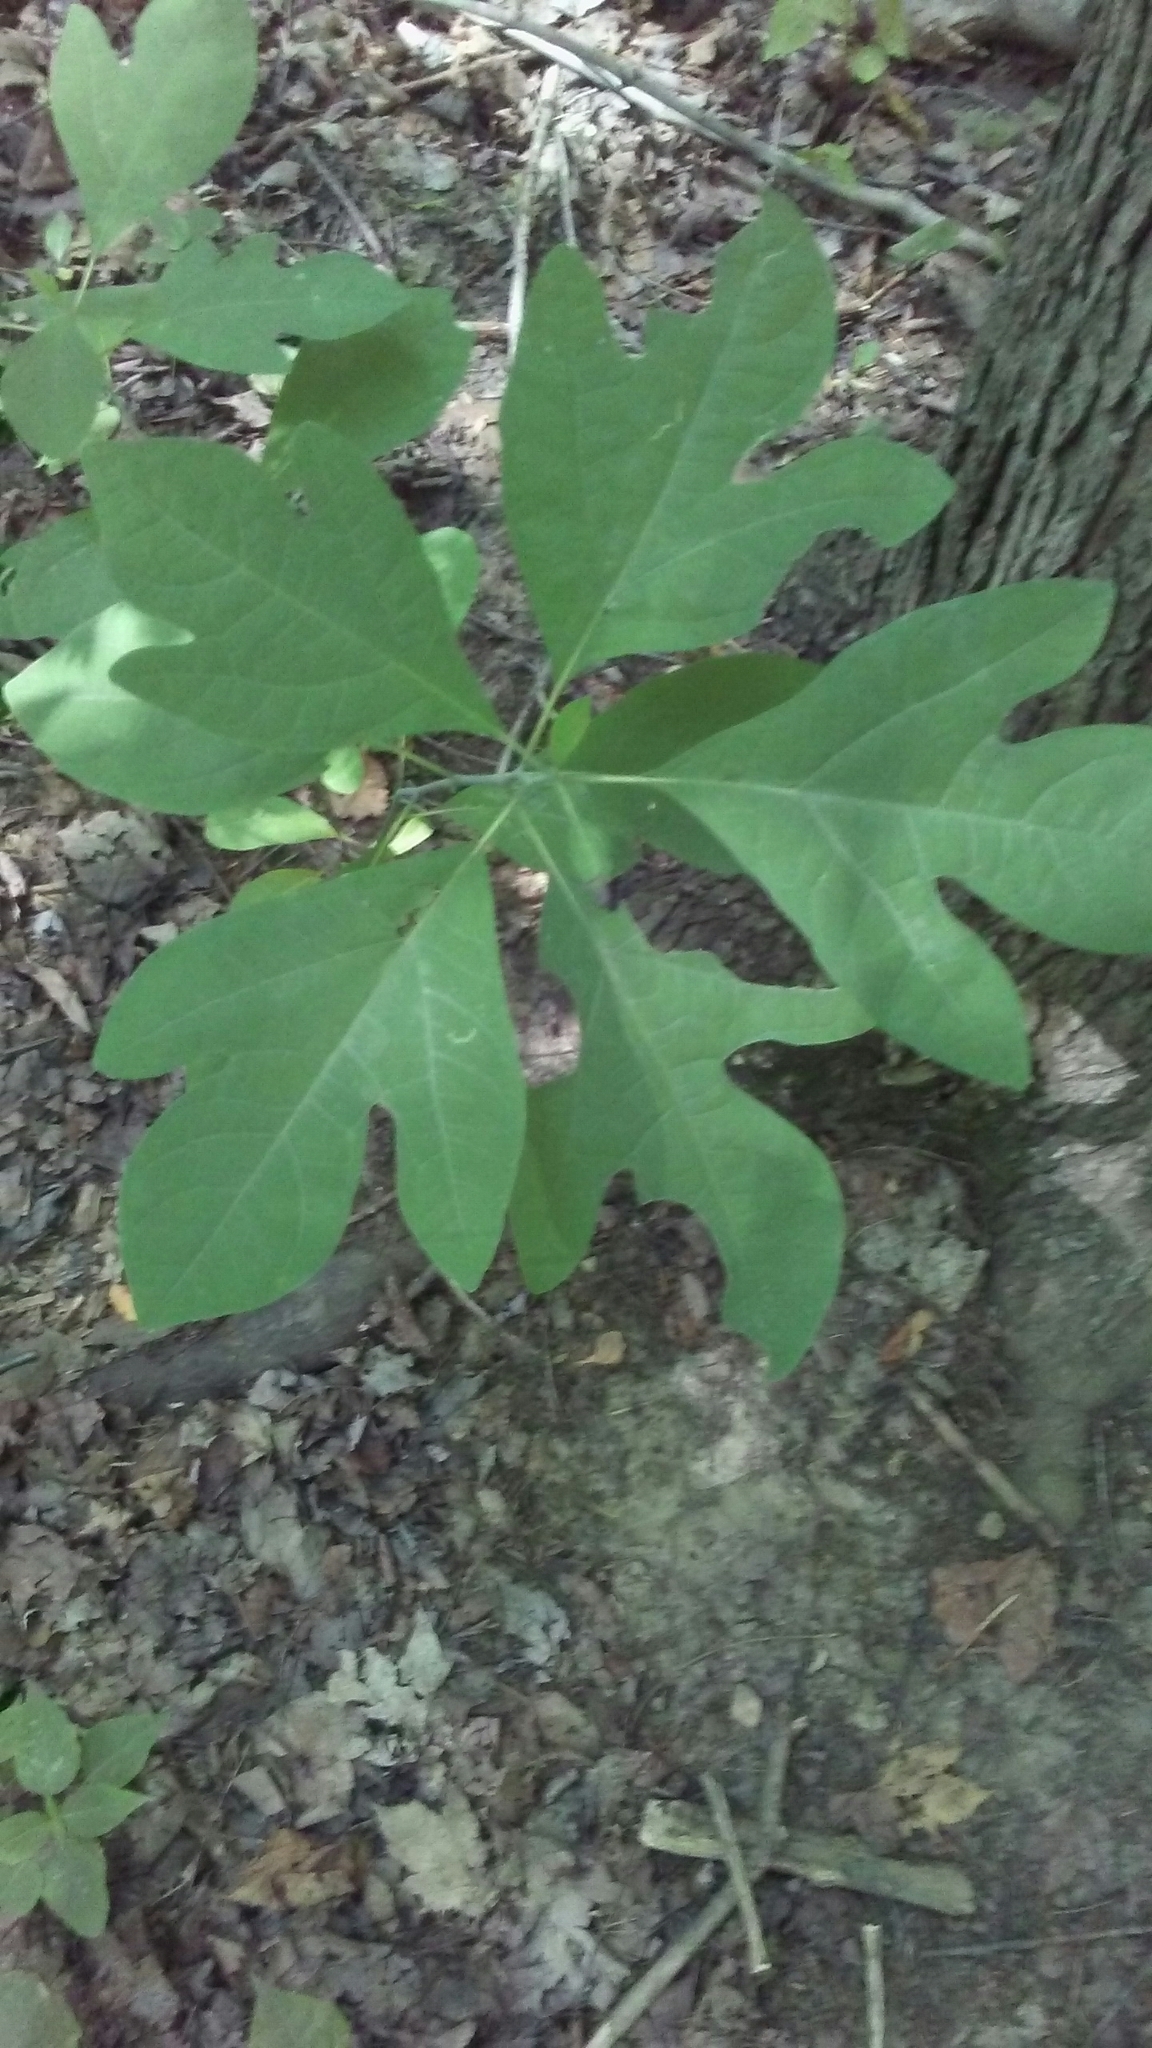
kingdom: Plantae
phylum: Tracheophyta
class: Magnoliopsida
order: Laurales
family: Lauraceae
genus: Sassafras
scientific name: Sassafras albidum
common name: Sassafras
